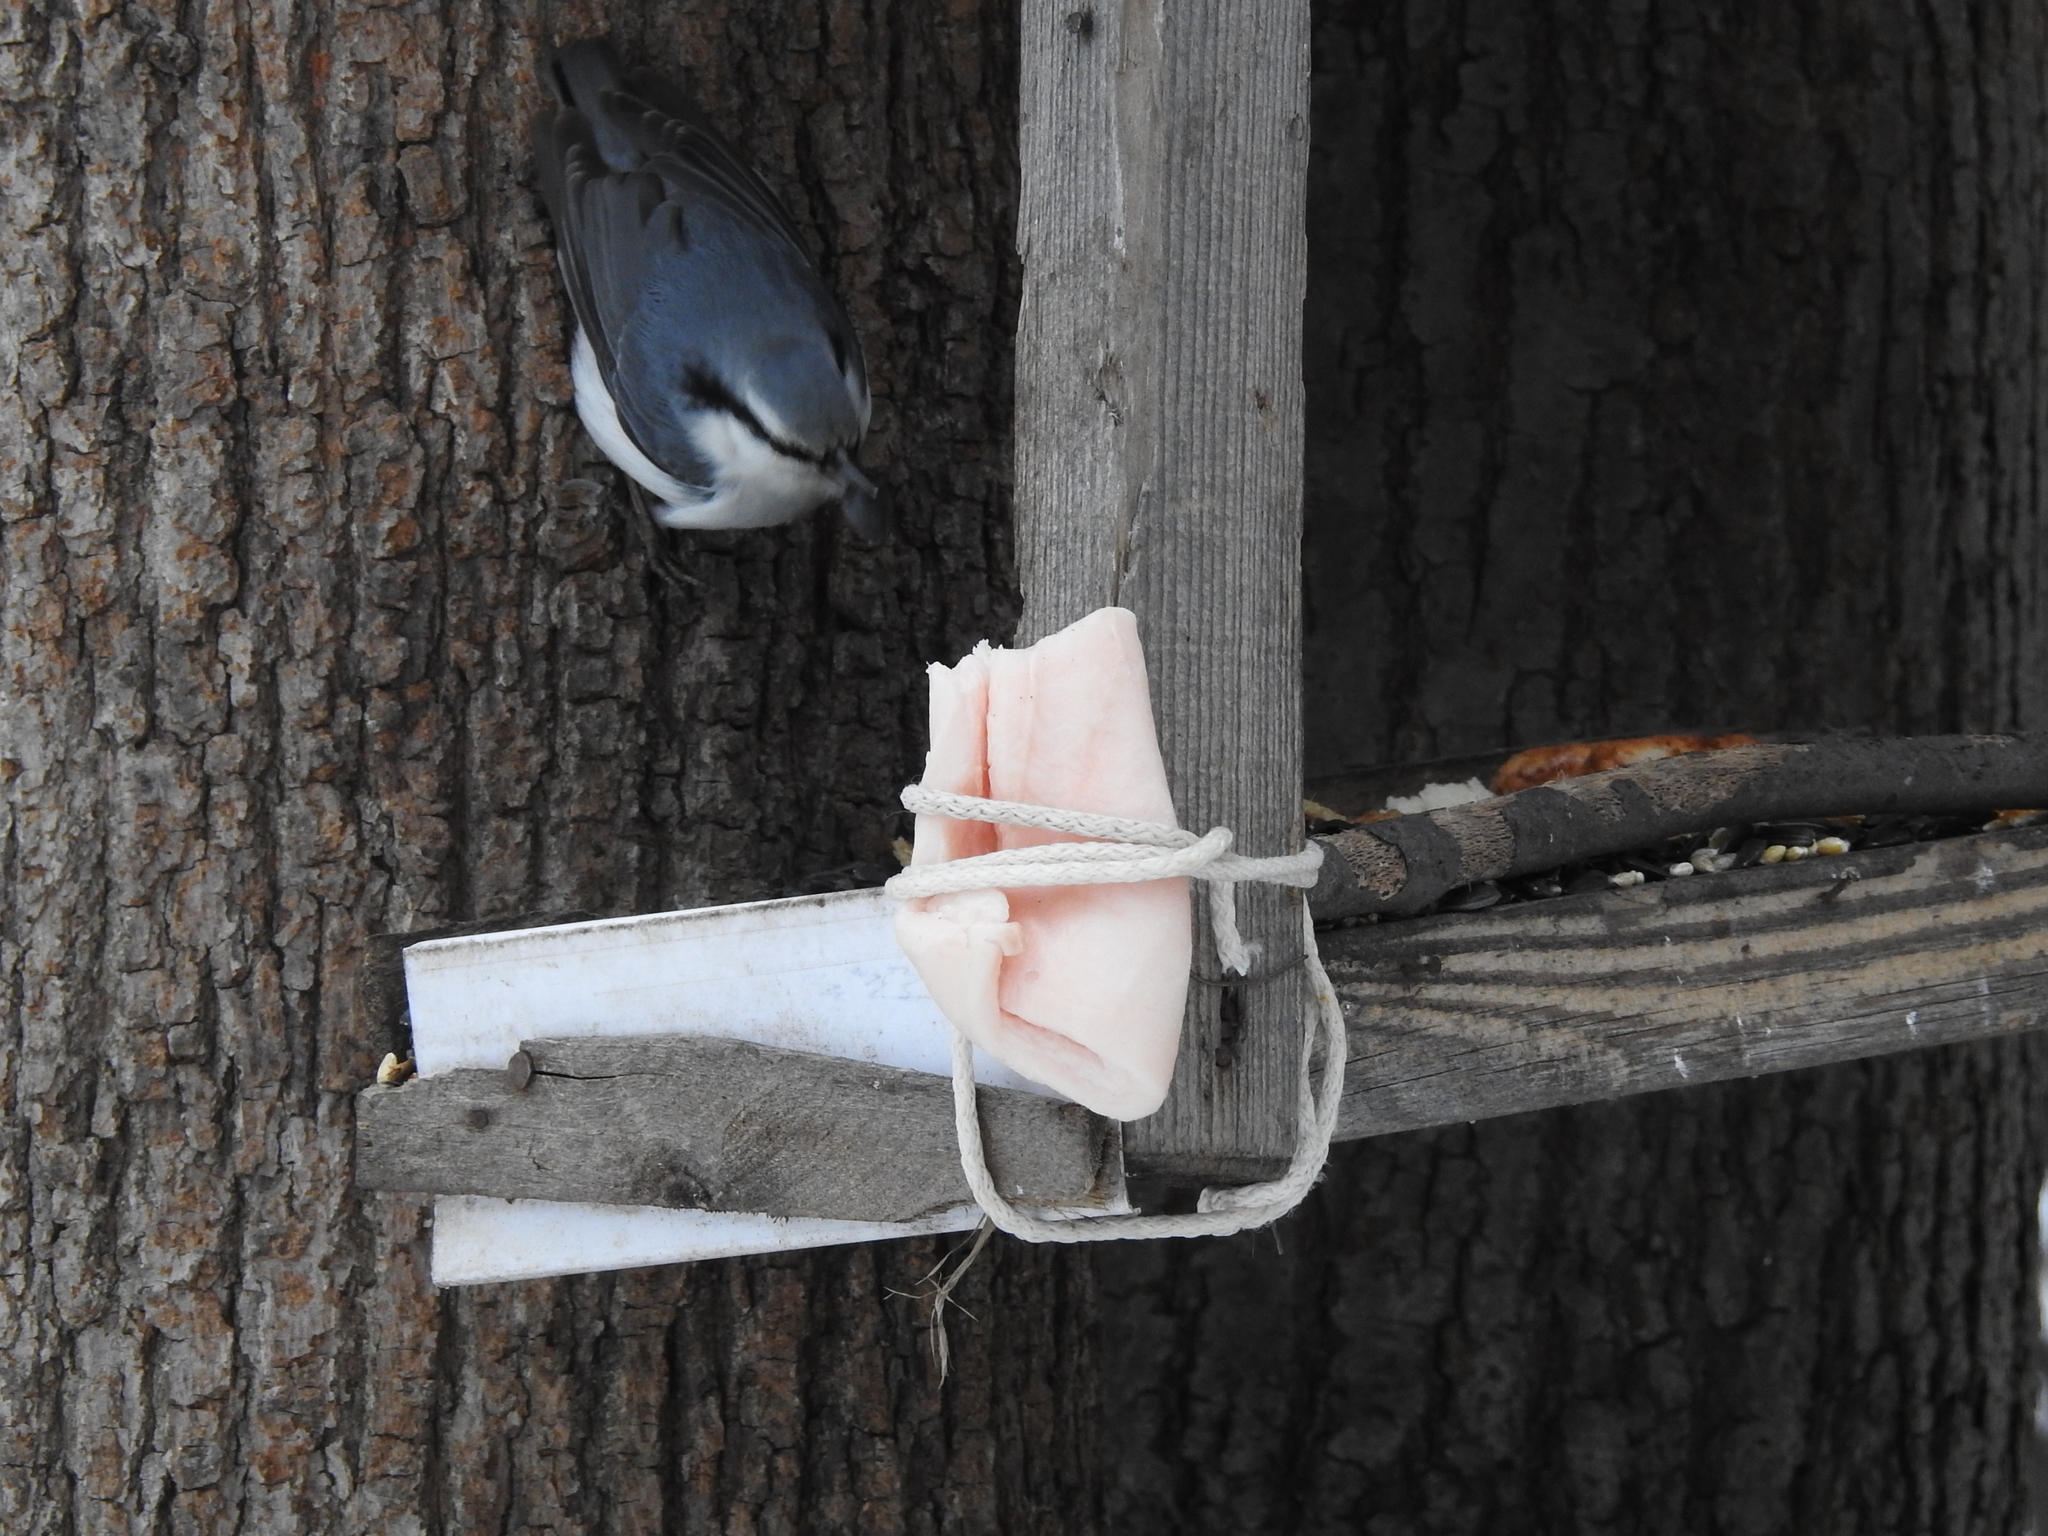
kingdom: Animalia
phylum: Chordata
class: Aves
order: Passeriformes
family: Sittidae
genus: Sitta
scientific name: Sitta europaea
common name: Eurasian nuthatch
